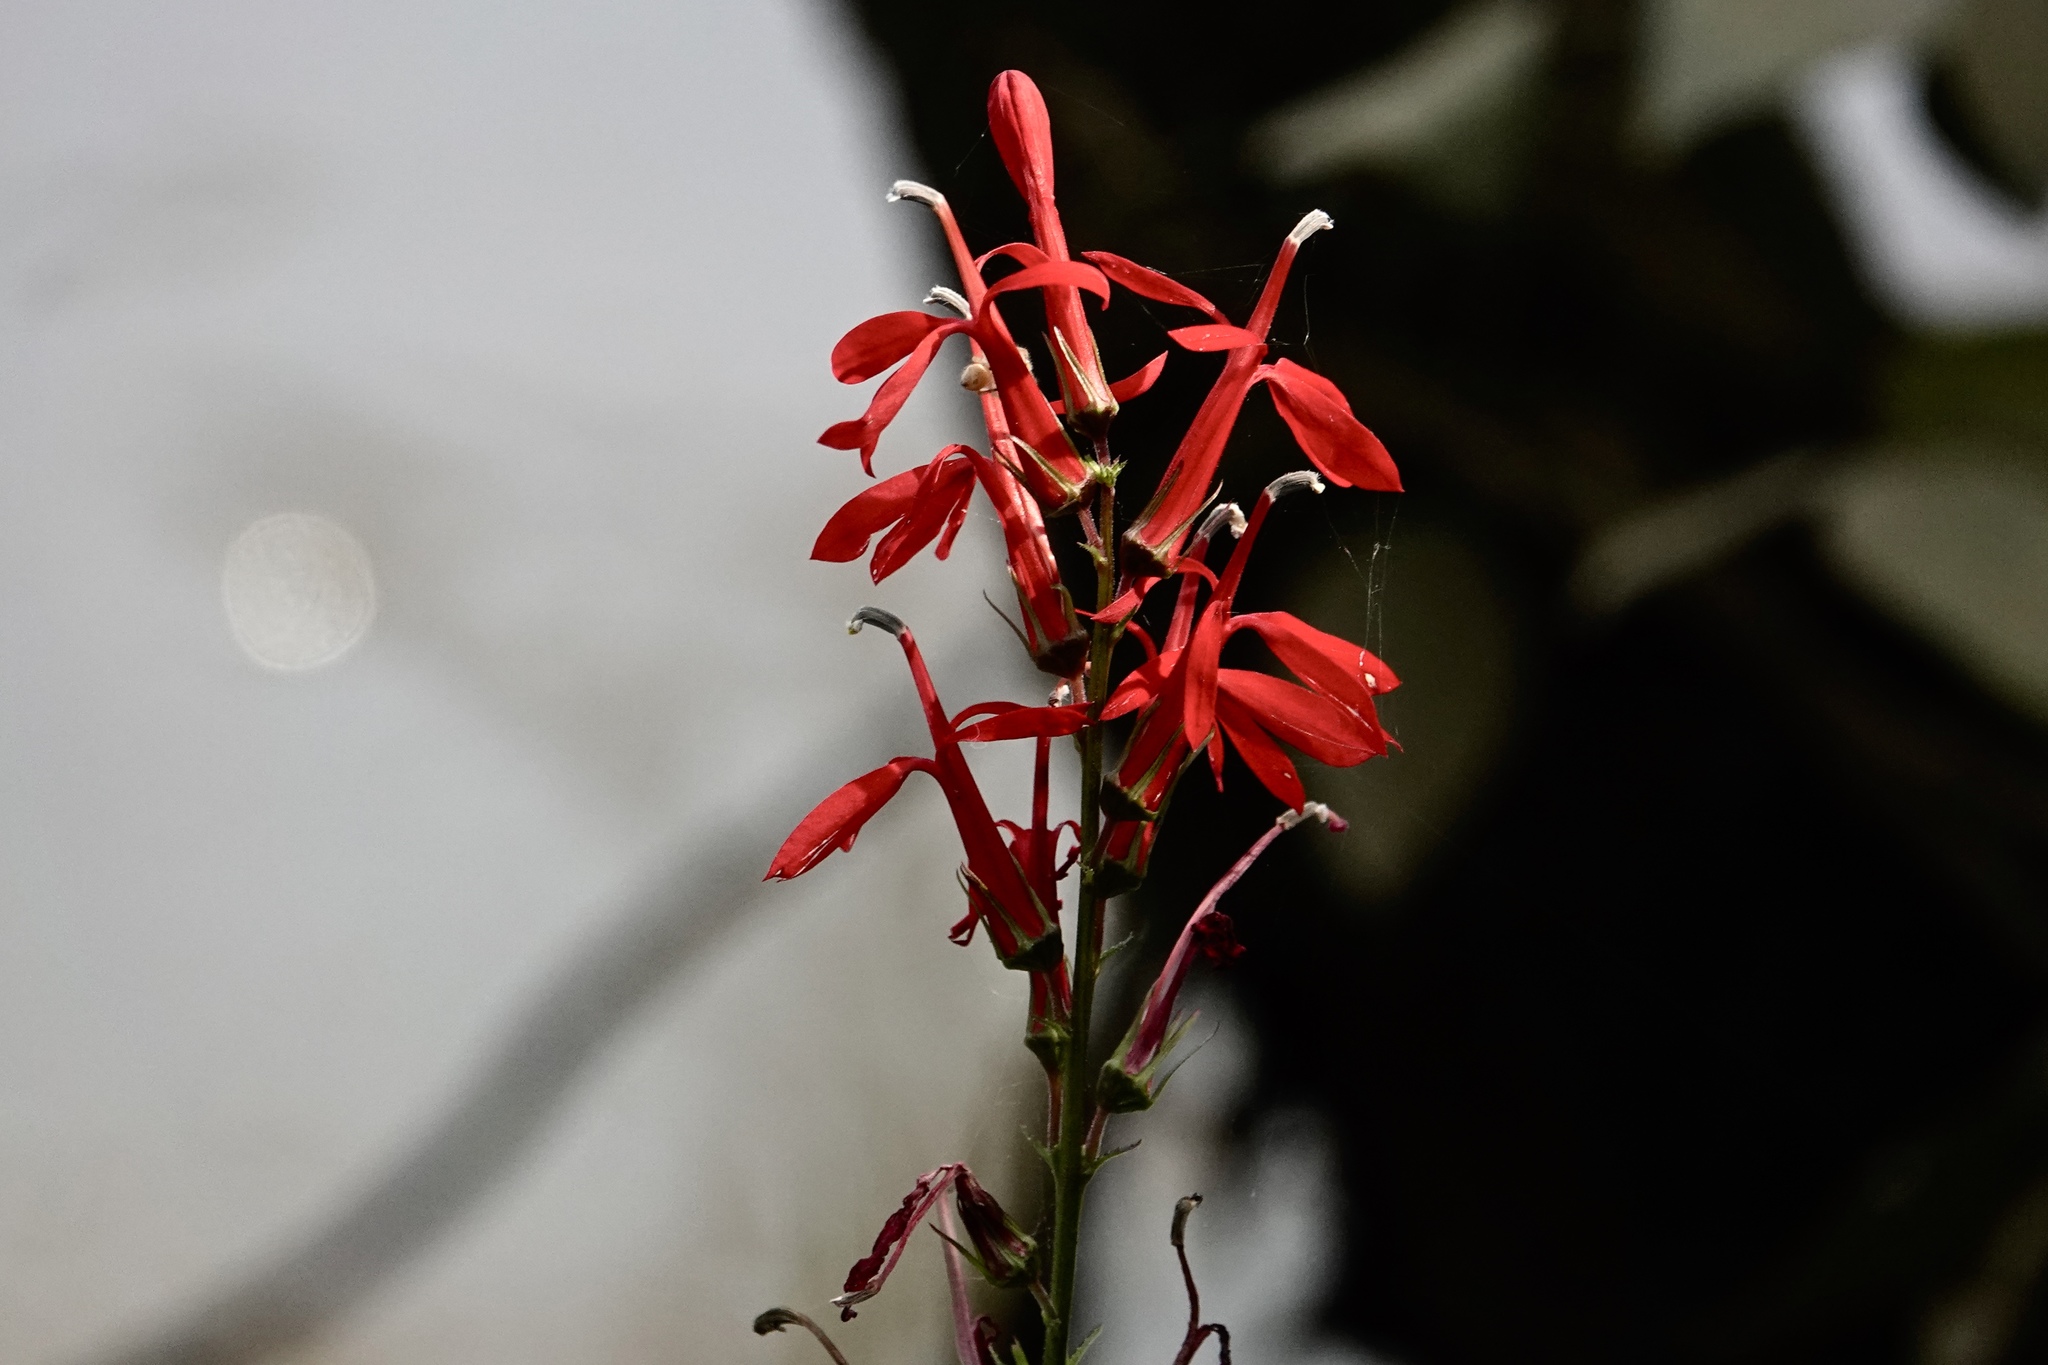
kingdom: Plantae
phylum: Tracheophyta
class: Magnoliopsida
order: Asterales
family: Campanulaceae
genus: Lobelia
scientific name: Lobelia cardinalis
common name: Cardinal flower
